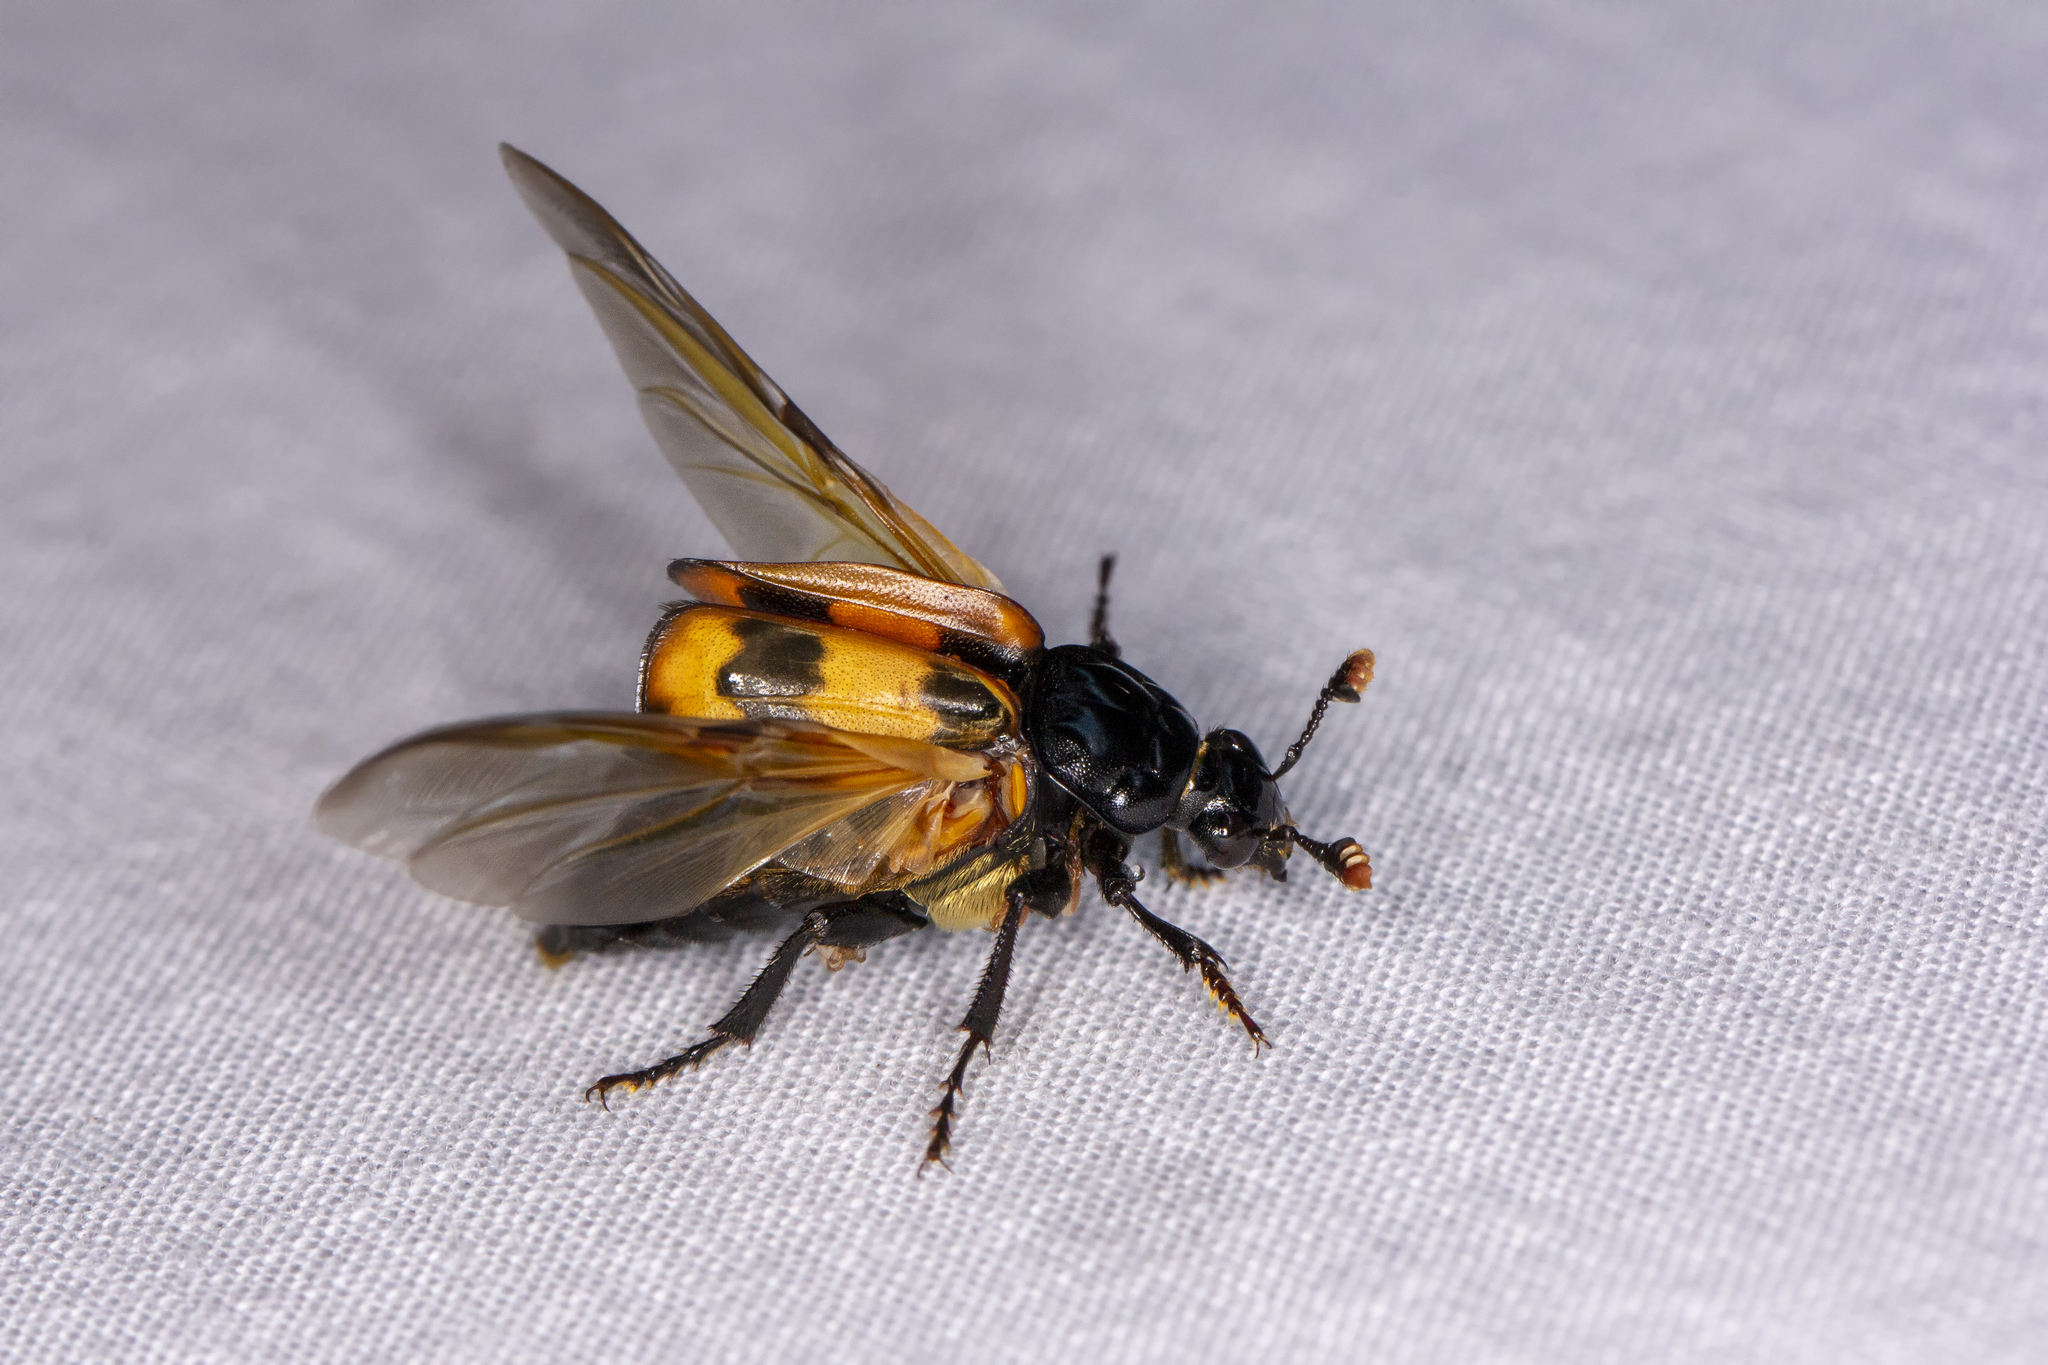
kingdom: Animalia
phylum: Arthropoda
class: Insecta
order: Coleoptera
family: Staphylinidae
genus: Nicrophorus
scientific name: Nicrophorus investigator
